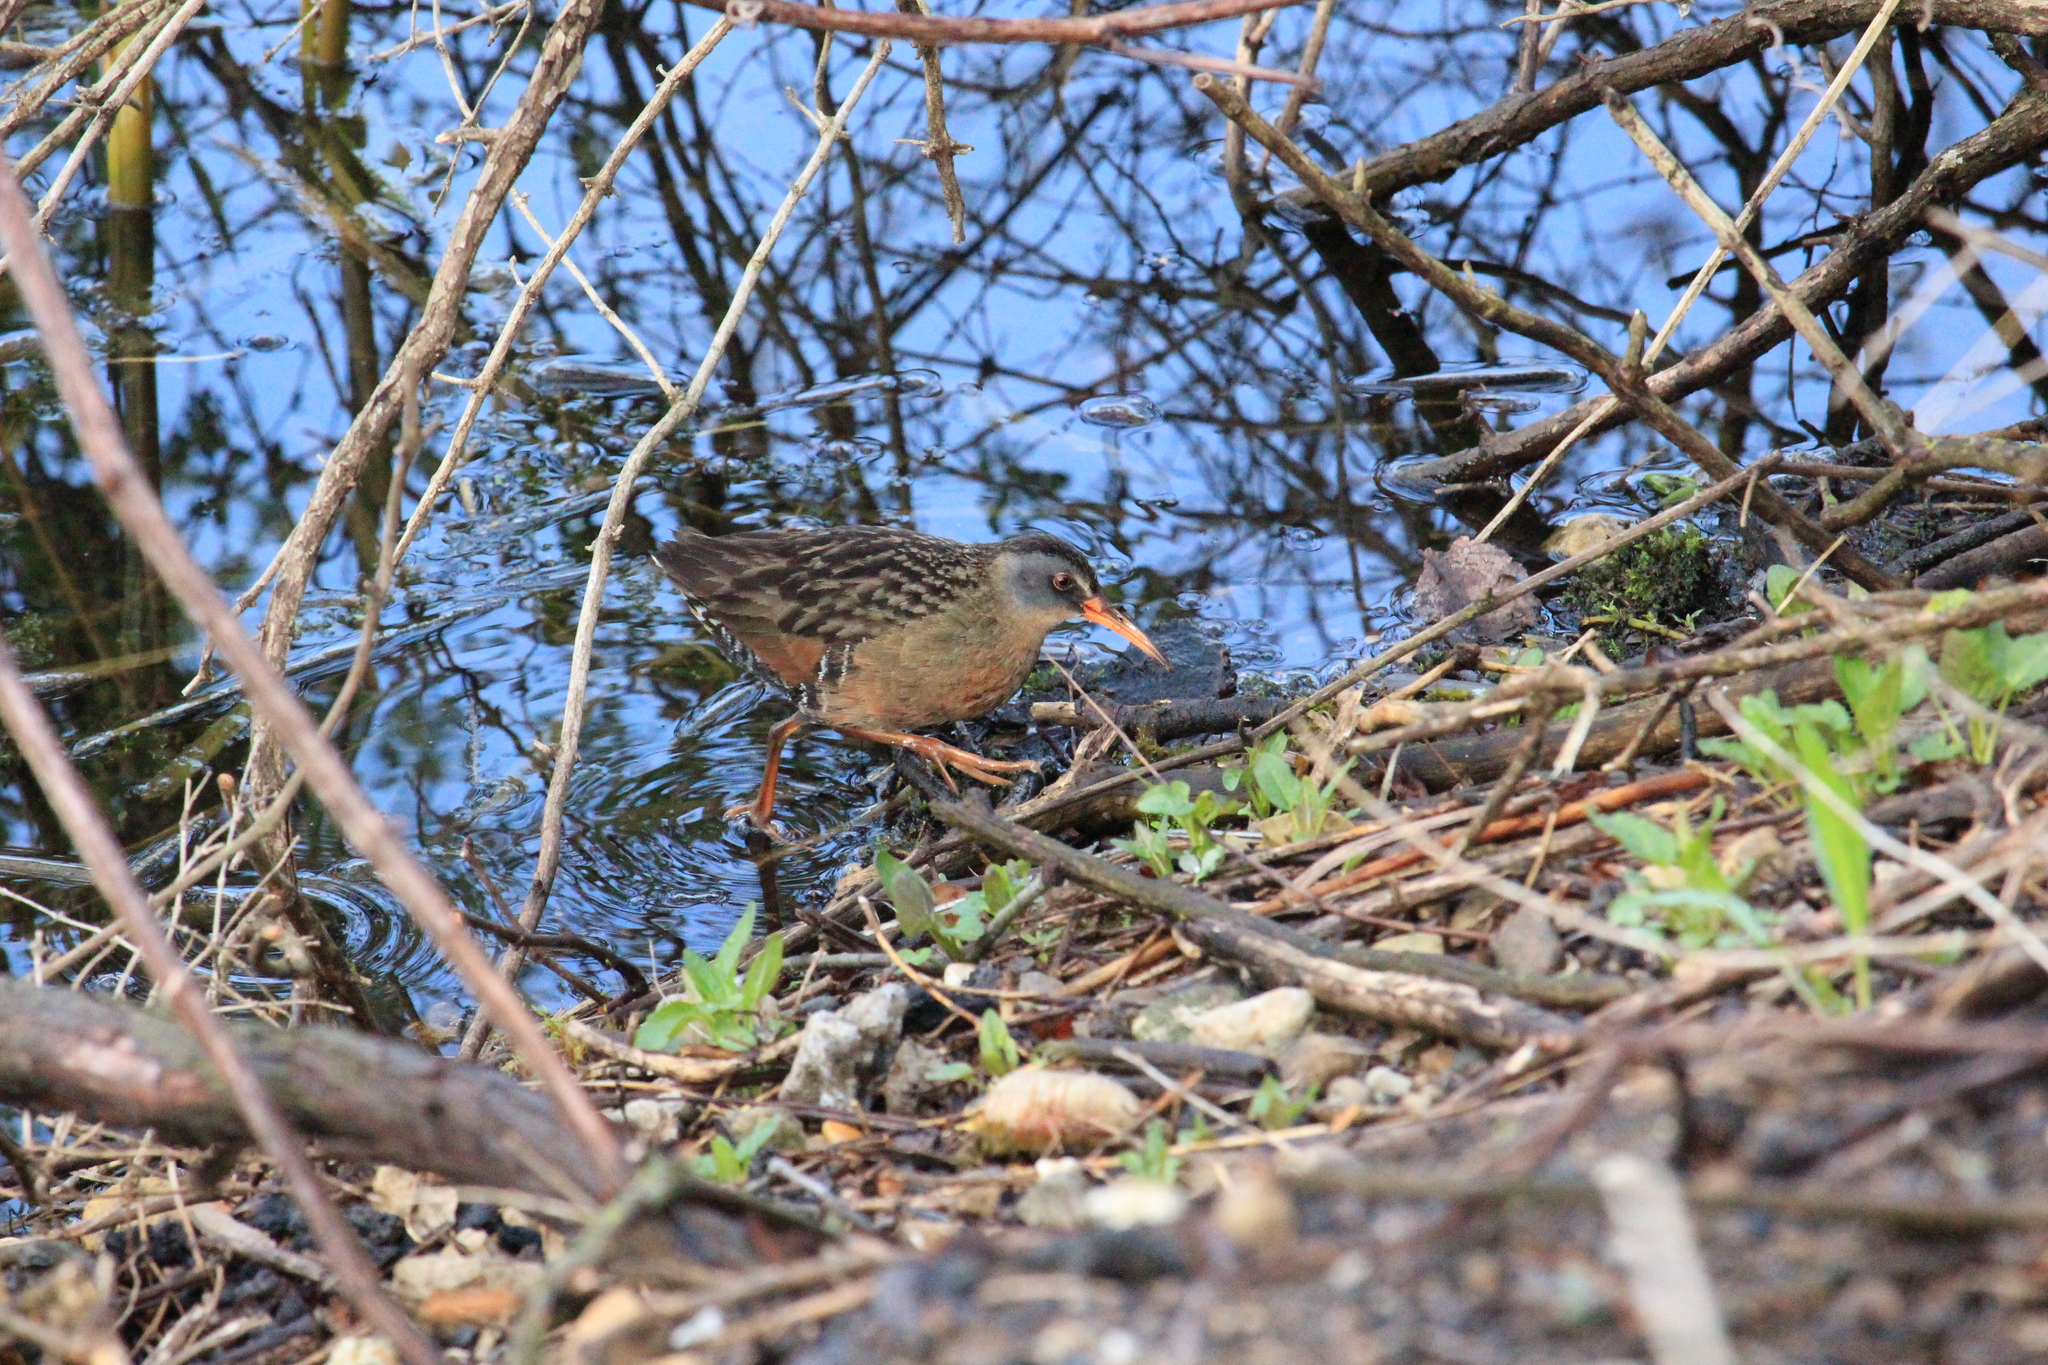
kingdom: Animalia
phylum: Chordata
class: Aves
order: Gruiformes
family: Rallidae
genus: Rallus
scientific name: Rallus limicola
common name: Virginia rail
